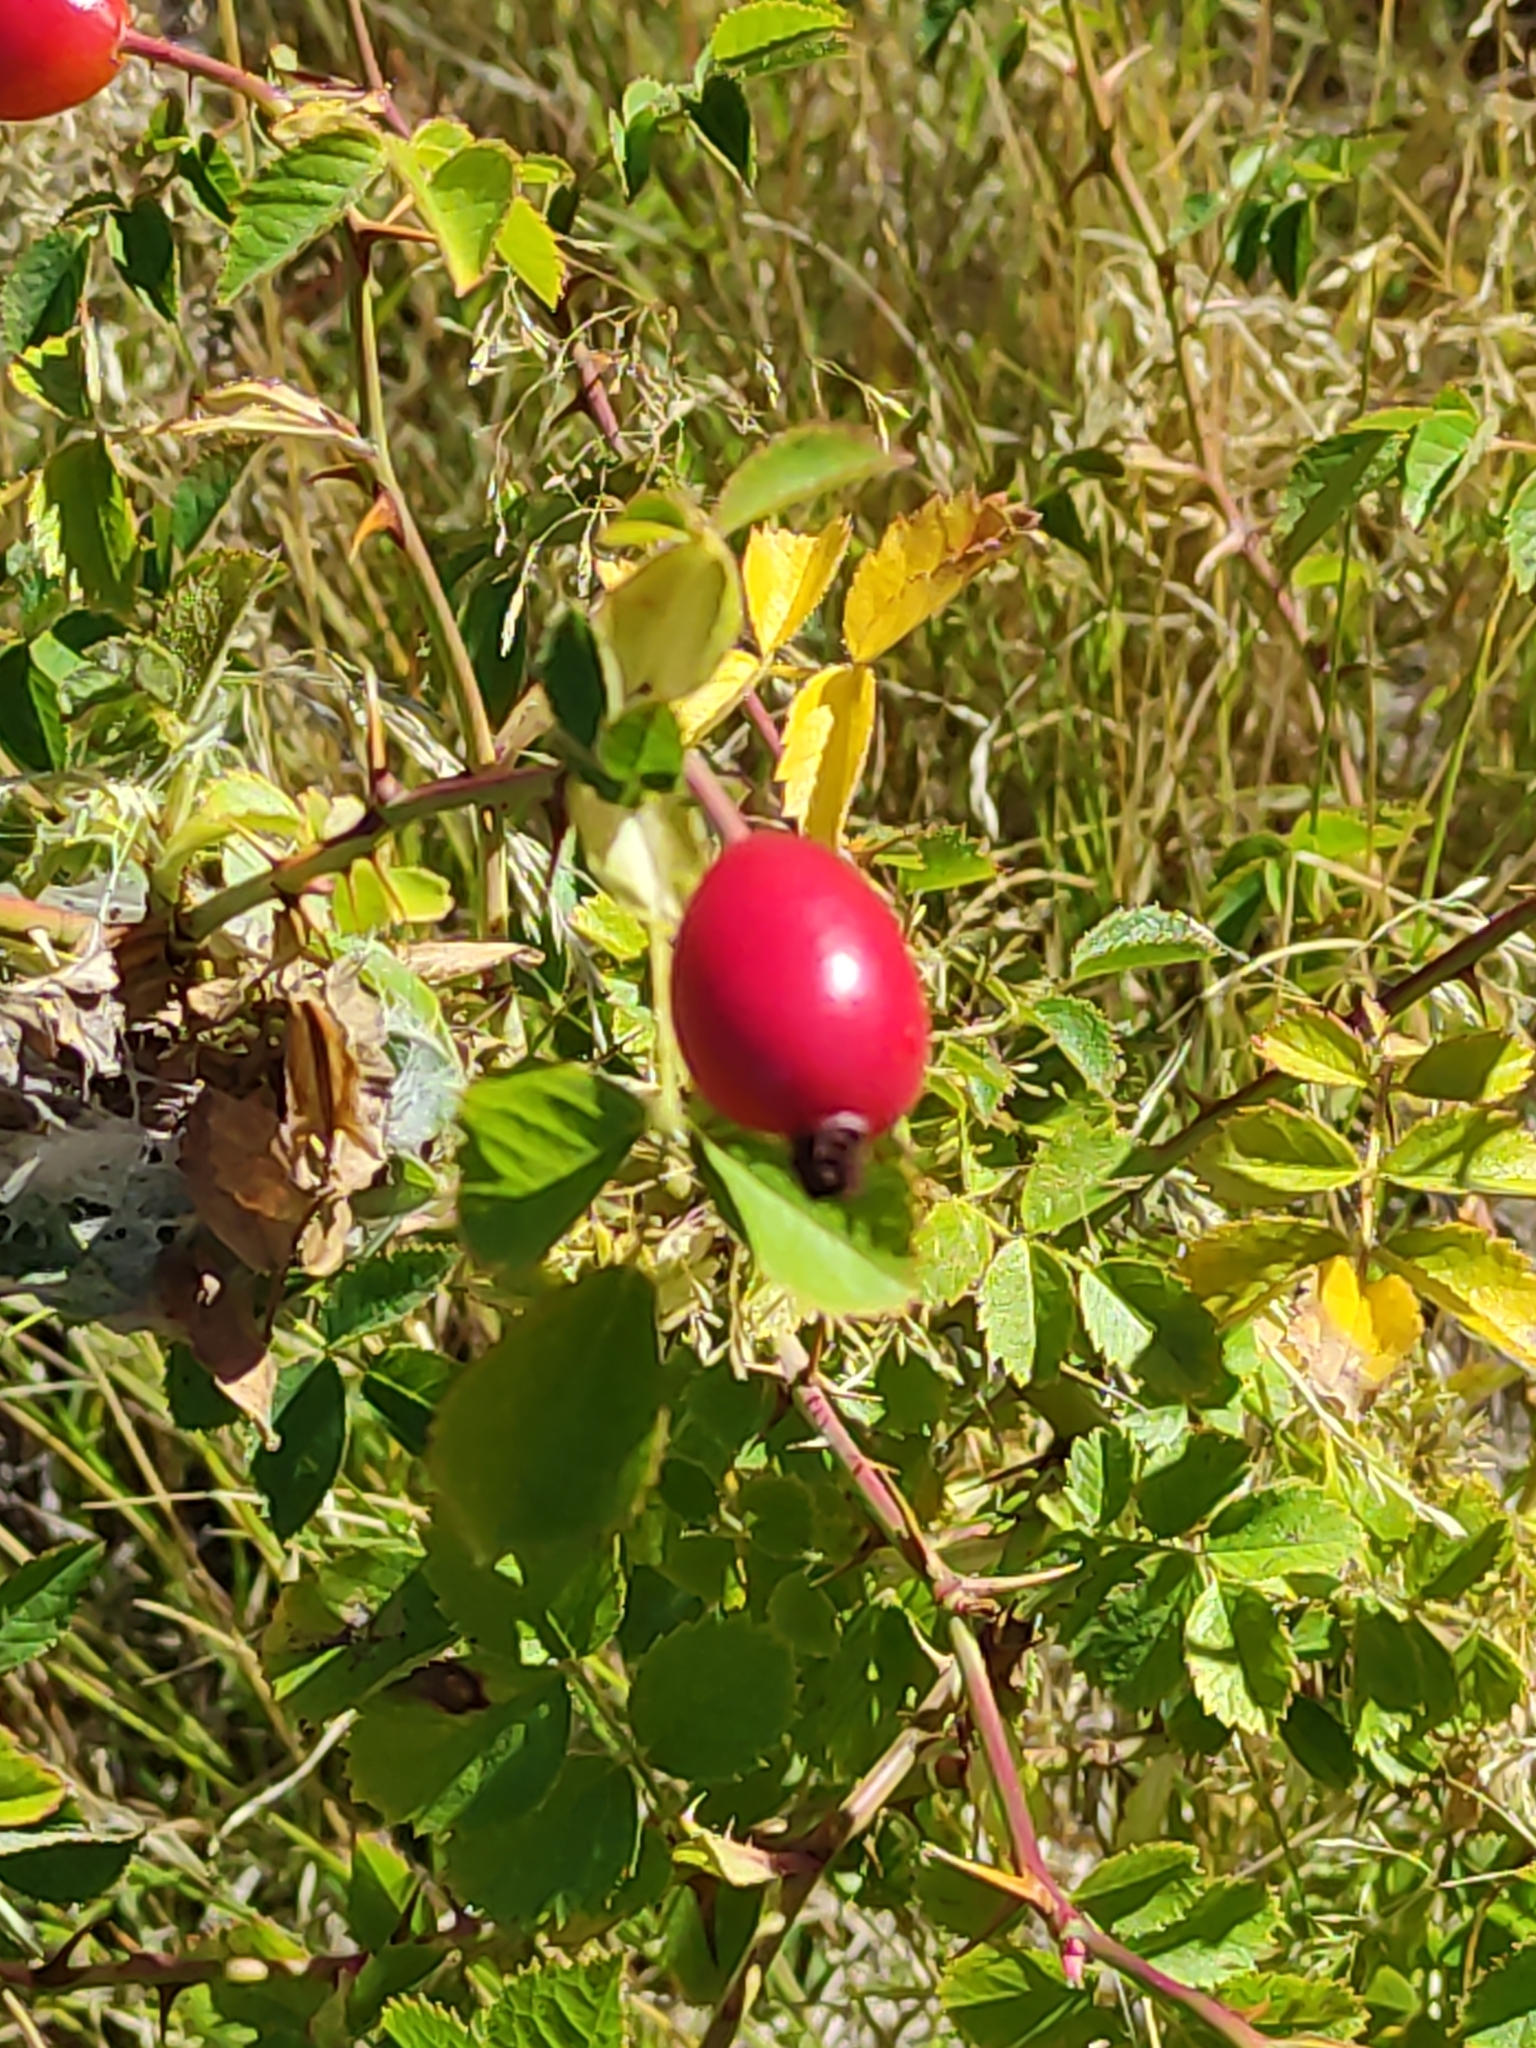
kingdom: Plantae
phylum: Tracheophyta
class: Magnoliopsida
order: Rosales
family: Rosaceae
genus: Rosa
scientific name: Rosa rubiginosa
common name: Sweet-briar
